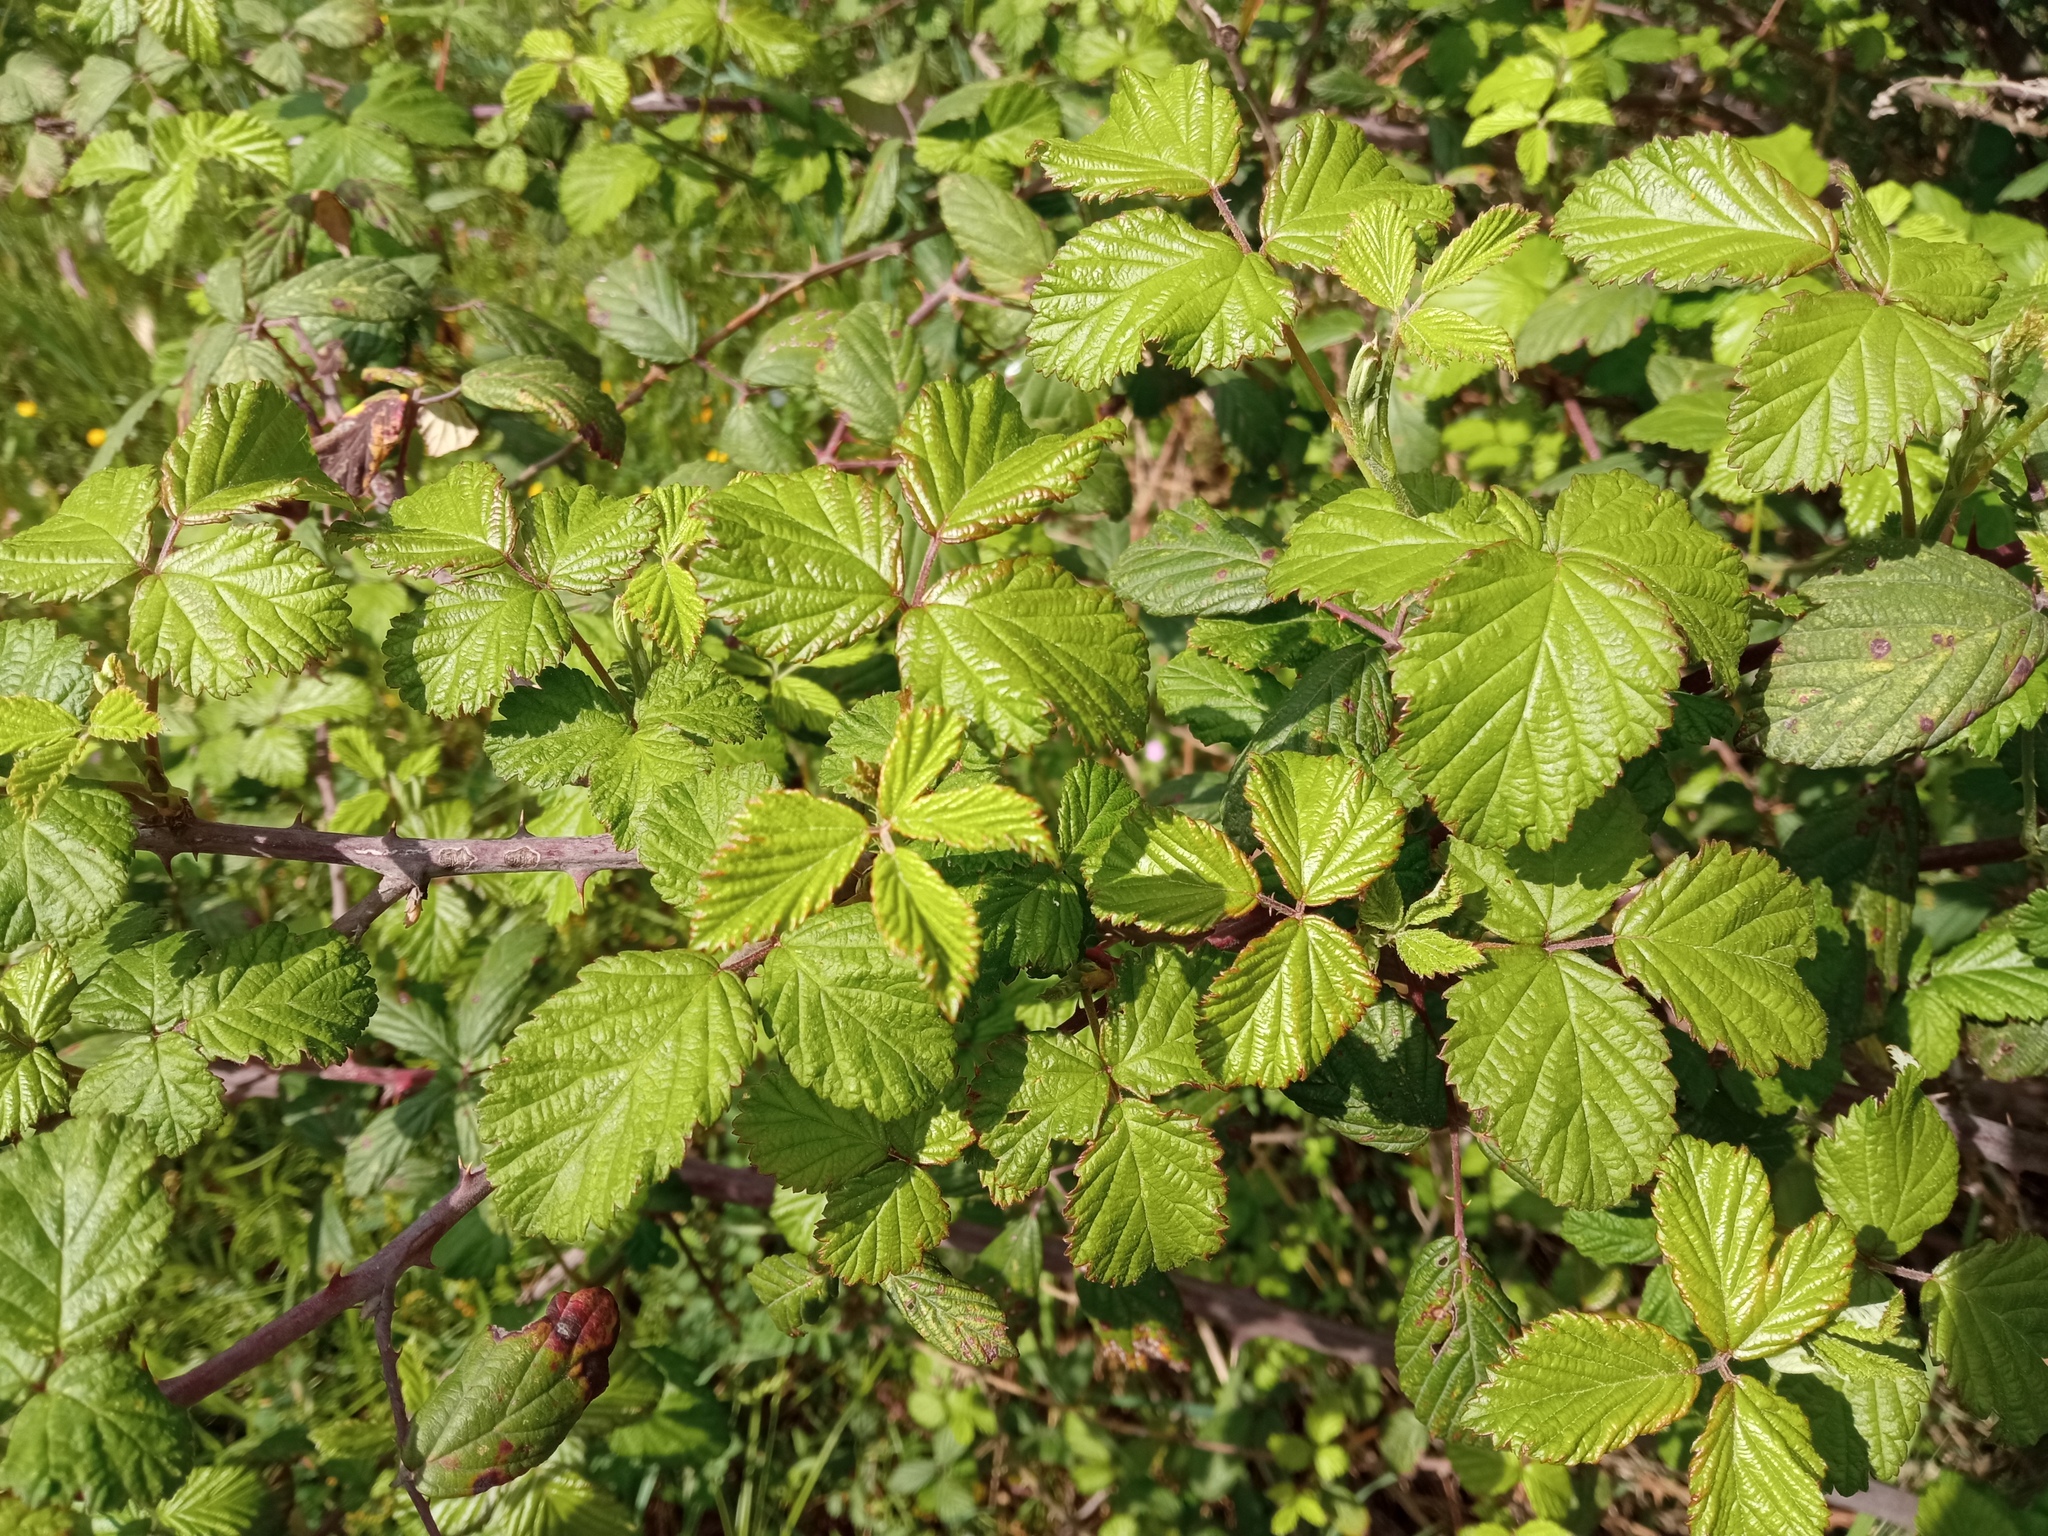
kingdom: Plantae
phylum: Tracheophyta
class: Magnoliopsida
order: Rosales
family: Rosaceae
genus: Rubus
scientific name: Rubus ulmifolius
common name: Elmleaf blackberry
